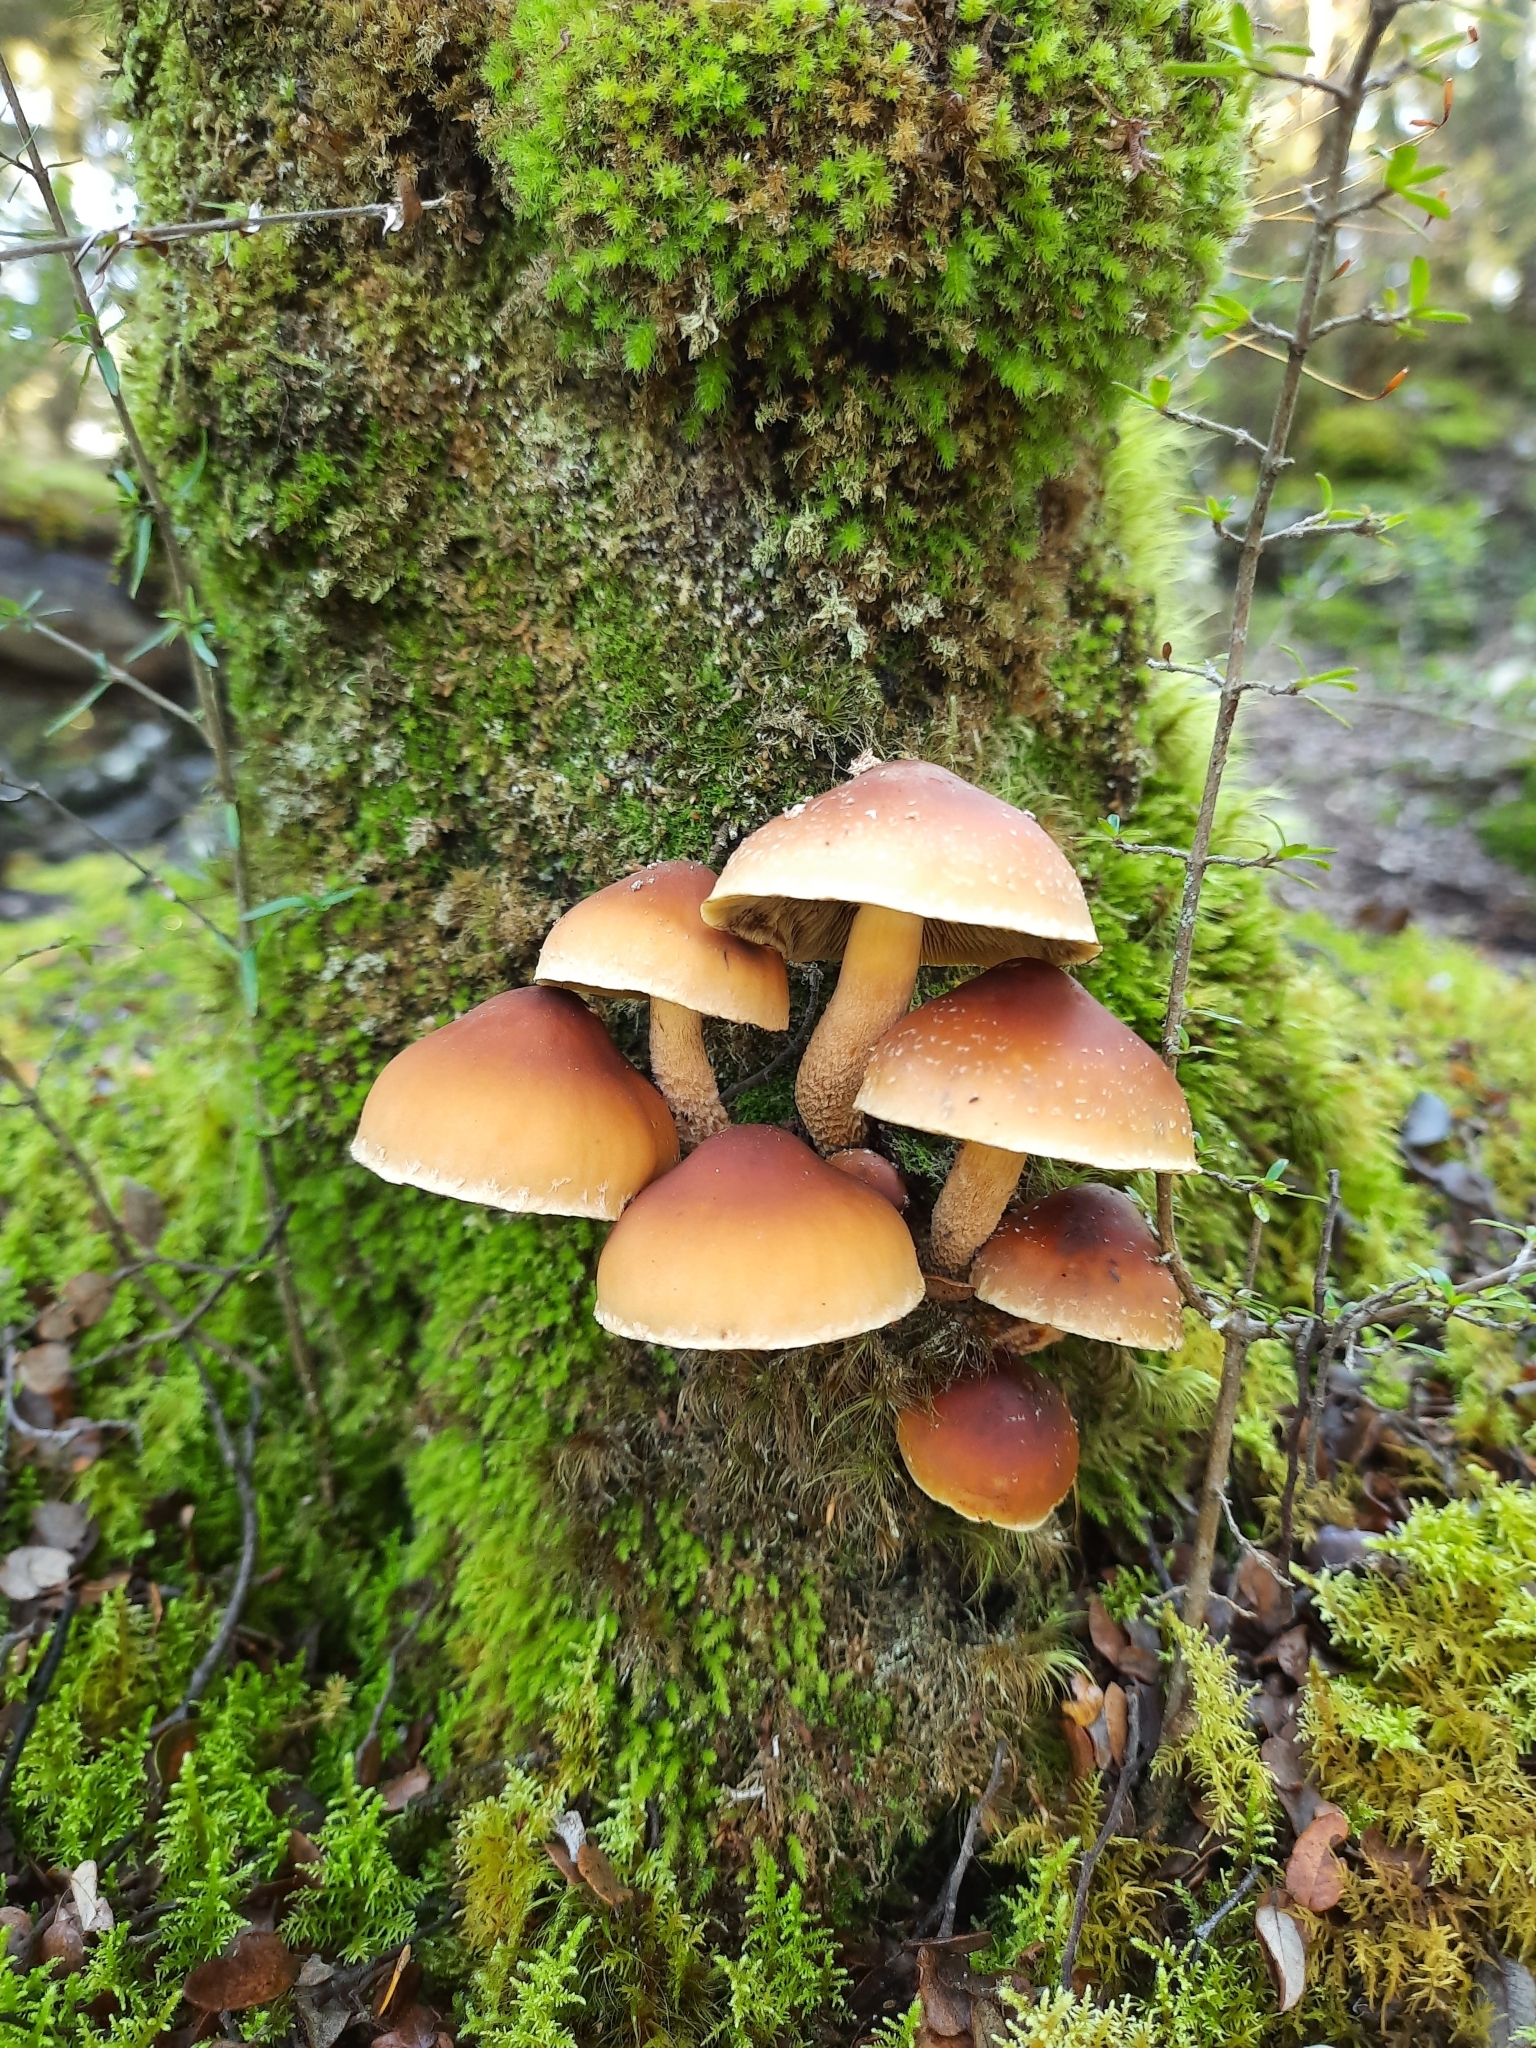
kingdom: Fungi
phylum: Basidiomycota
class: Agaricomycetes
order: Agaricales
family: Strophariaceae
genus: Hypholoma
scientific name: Hypholoma australianum
